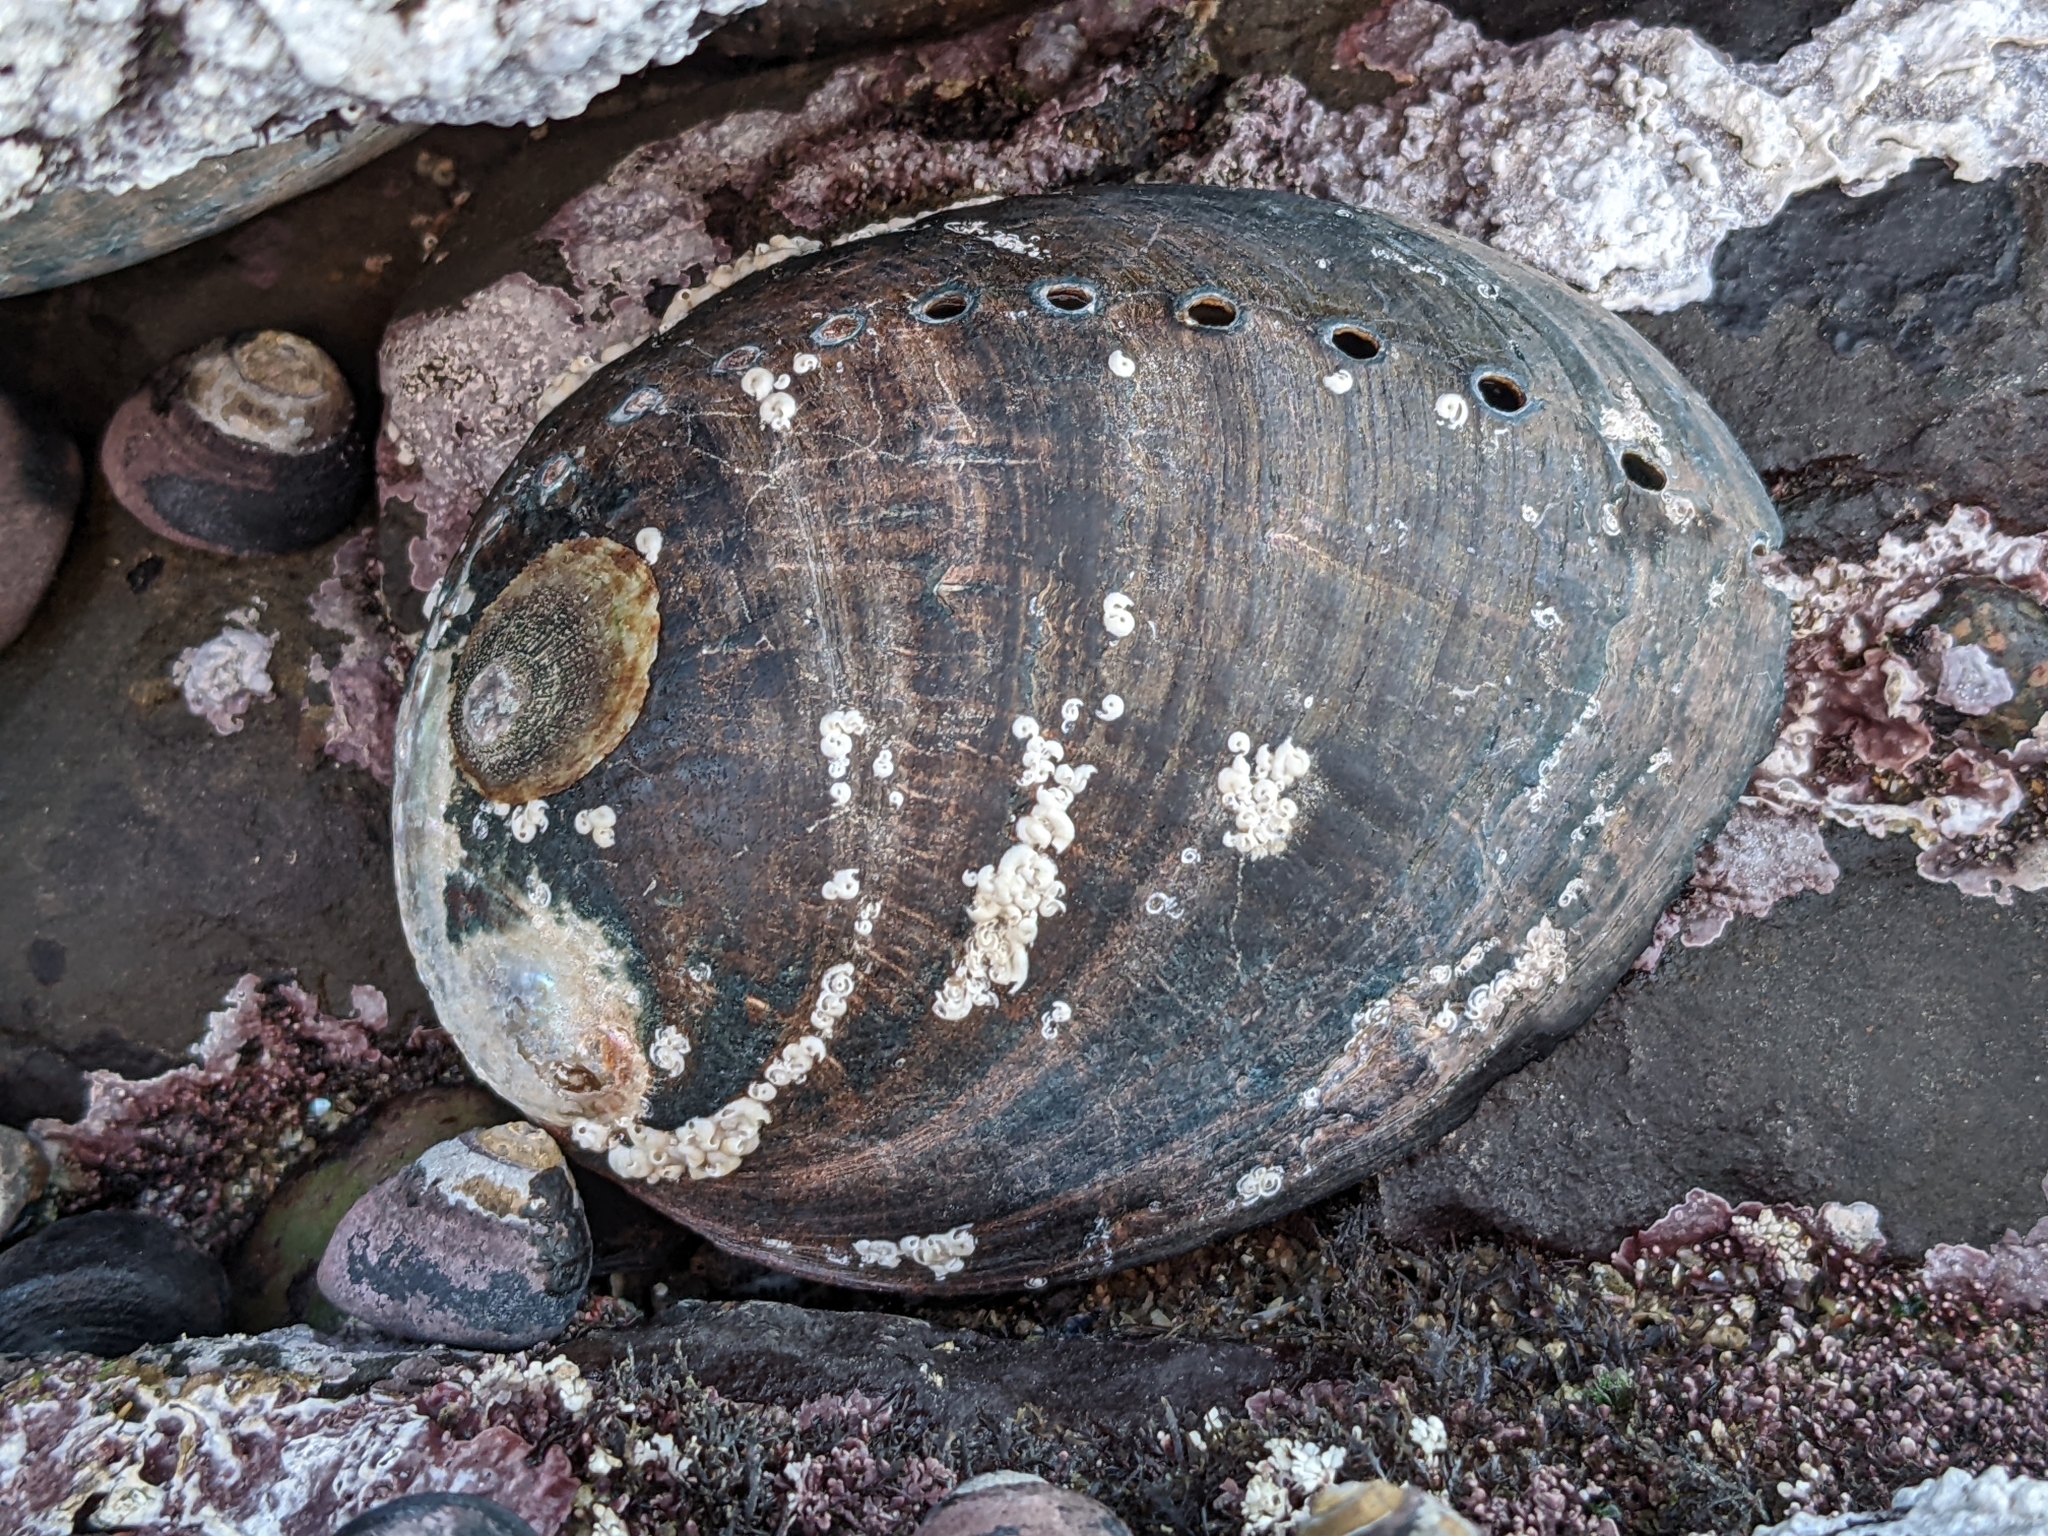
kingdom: Animalia
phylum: Mollusca
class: Gastropoda
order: Lepetellida
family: Haliotidae
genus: Haliotis
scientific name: Haliotis cracherodii
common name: Black abalone
